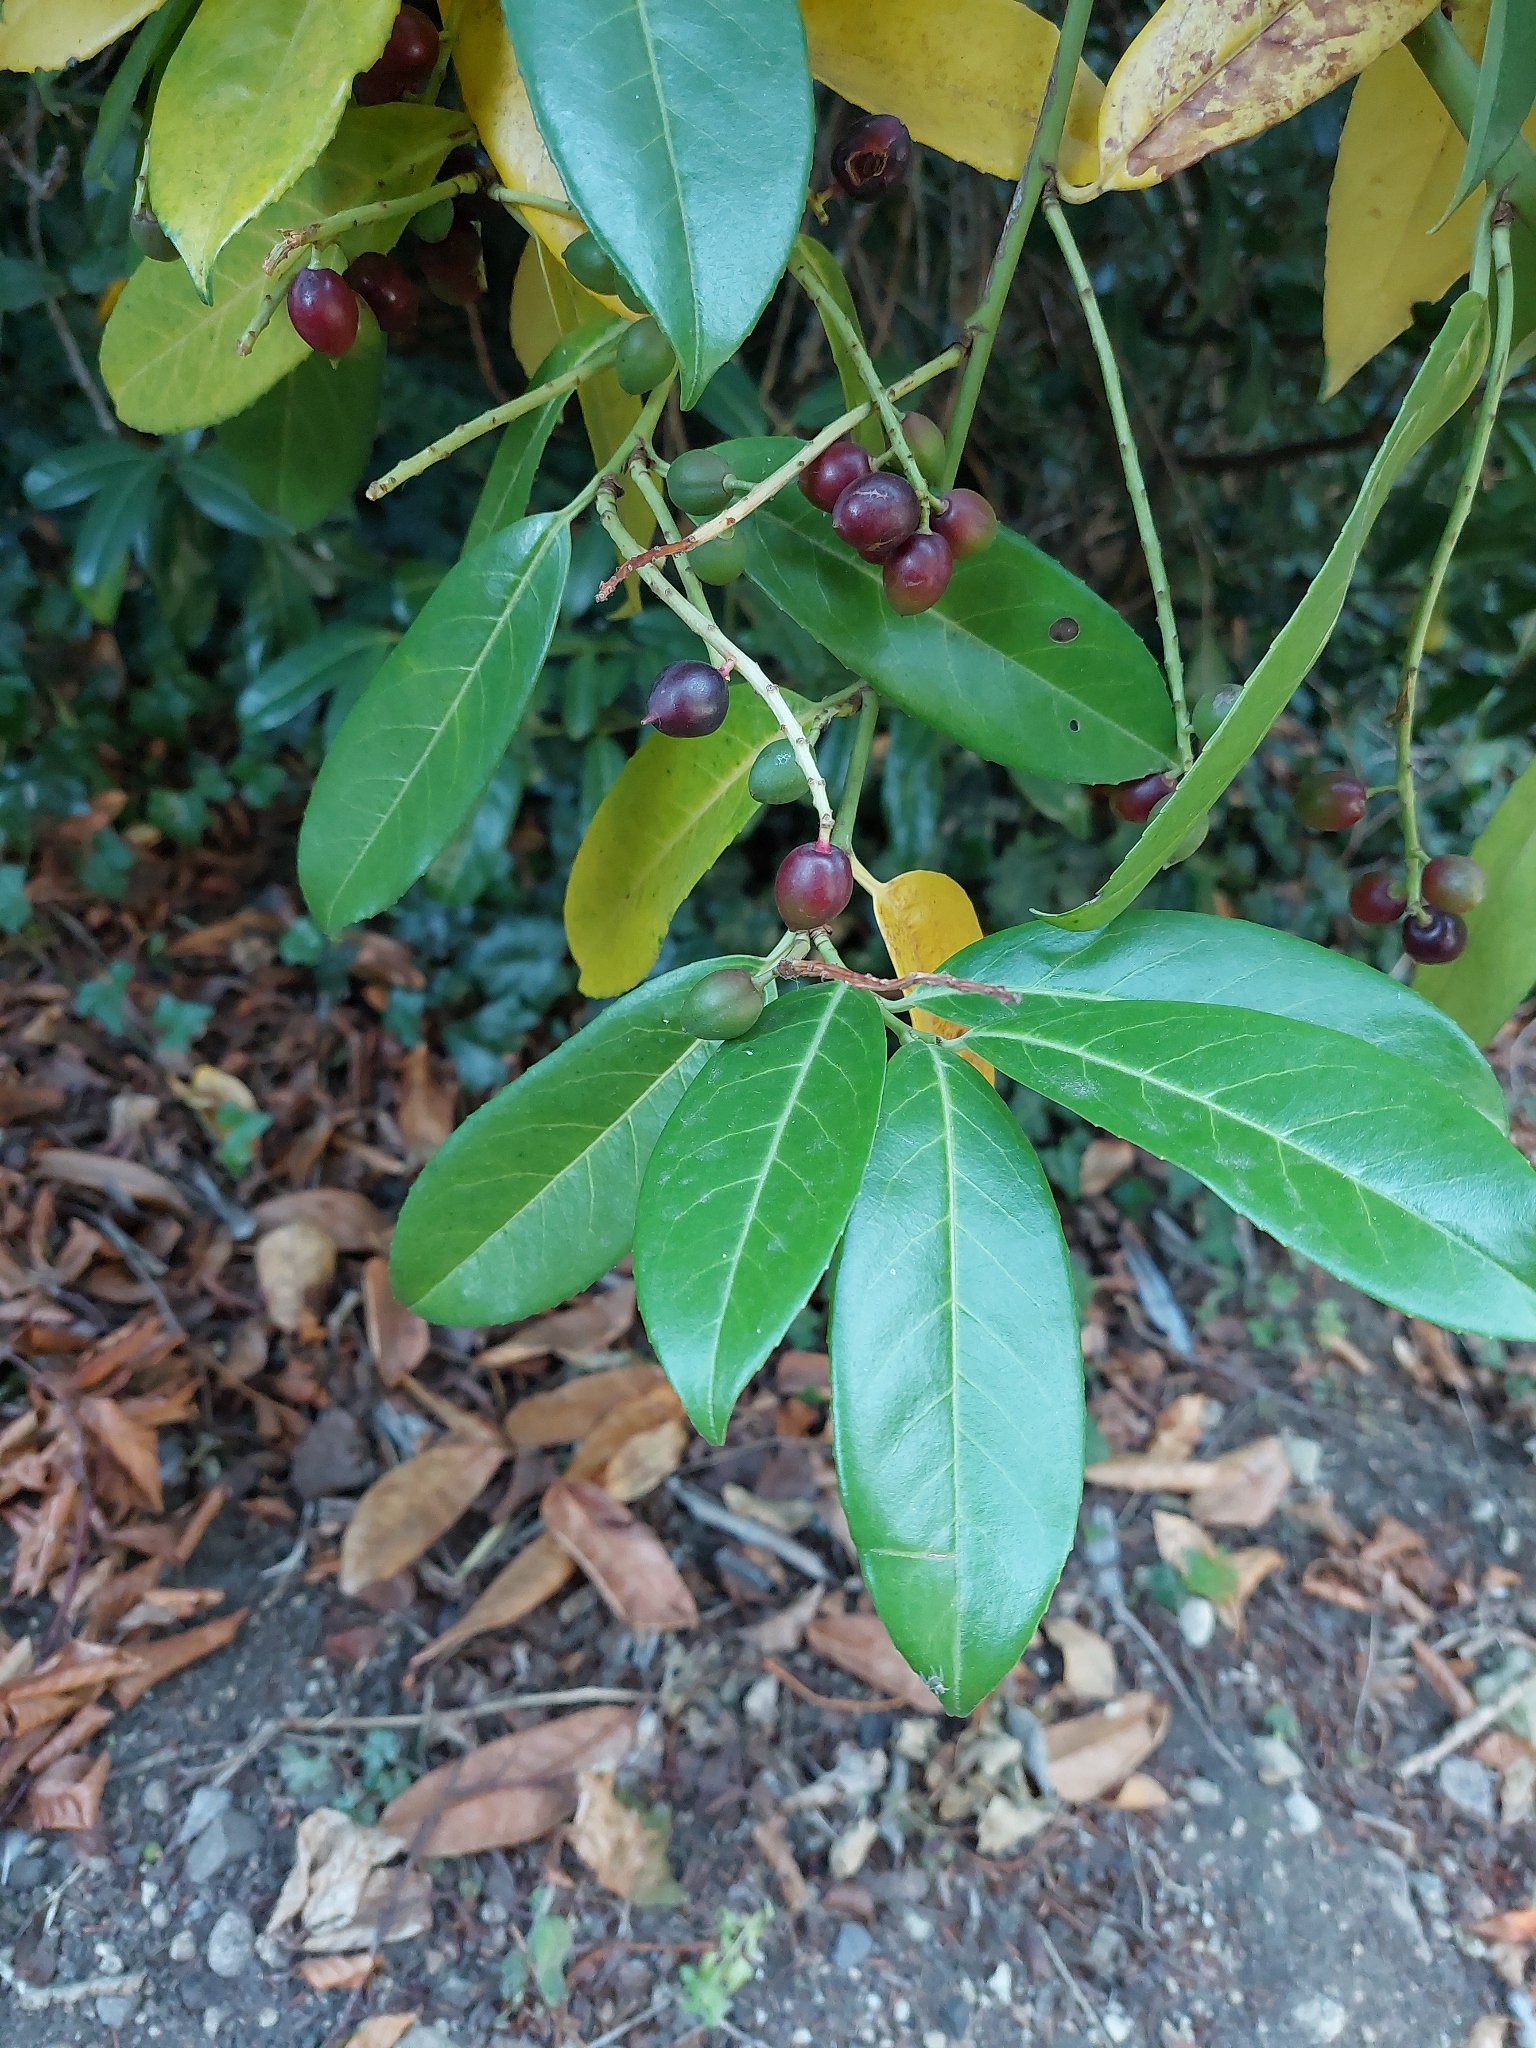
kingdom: Plantae
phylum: Tracheophyta
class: Magnoliopsida
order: Rosales
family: Rosaceae
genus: Prunus
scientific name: Prunus laurocerasus
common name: Cherry laurel
